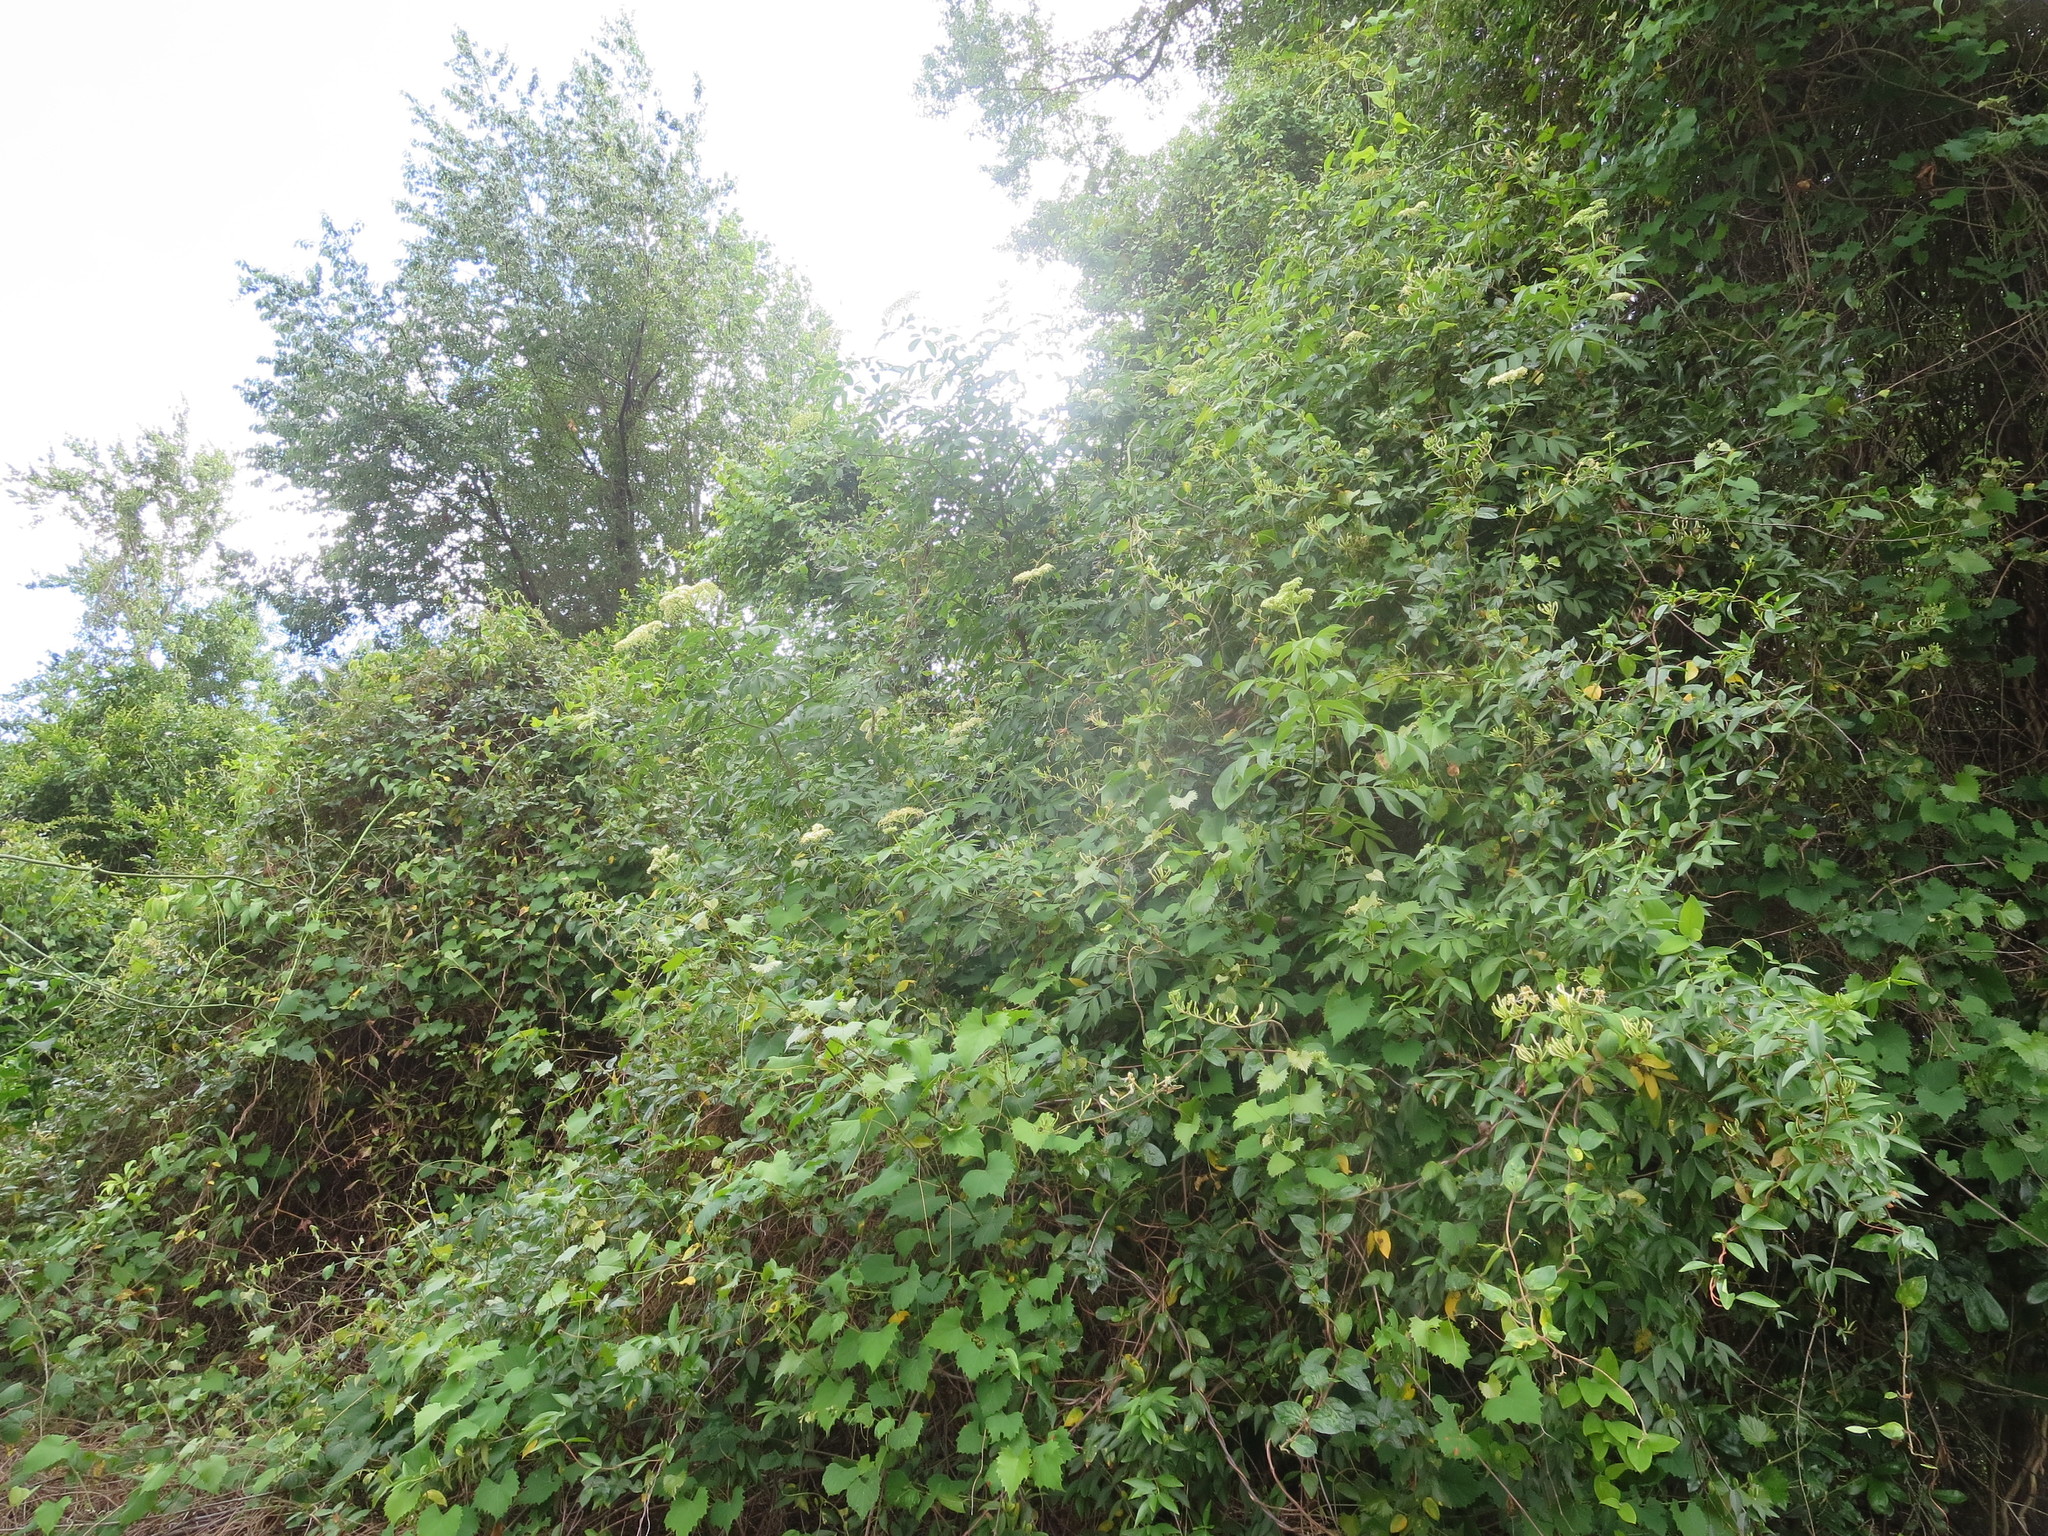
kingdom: Plantae
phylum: Tracheophyta
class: Magnoliopsida
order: Dipsacales
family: Viburnaceae
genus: Sambucus
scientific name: Sambucus canadensis
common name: American elder
